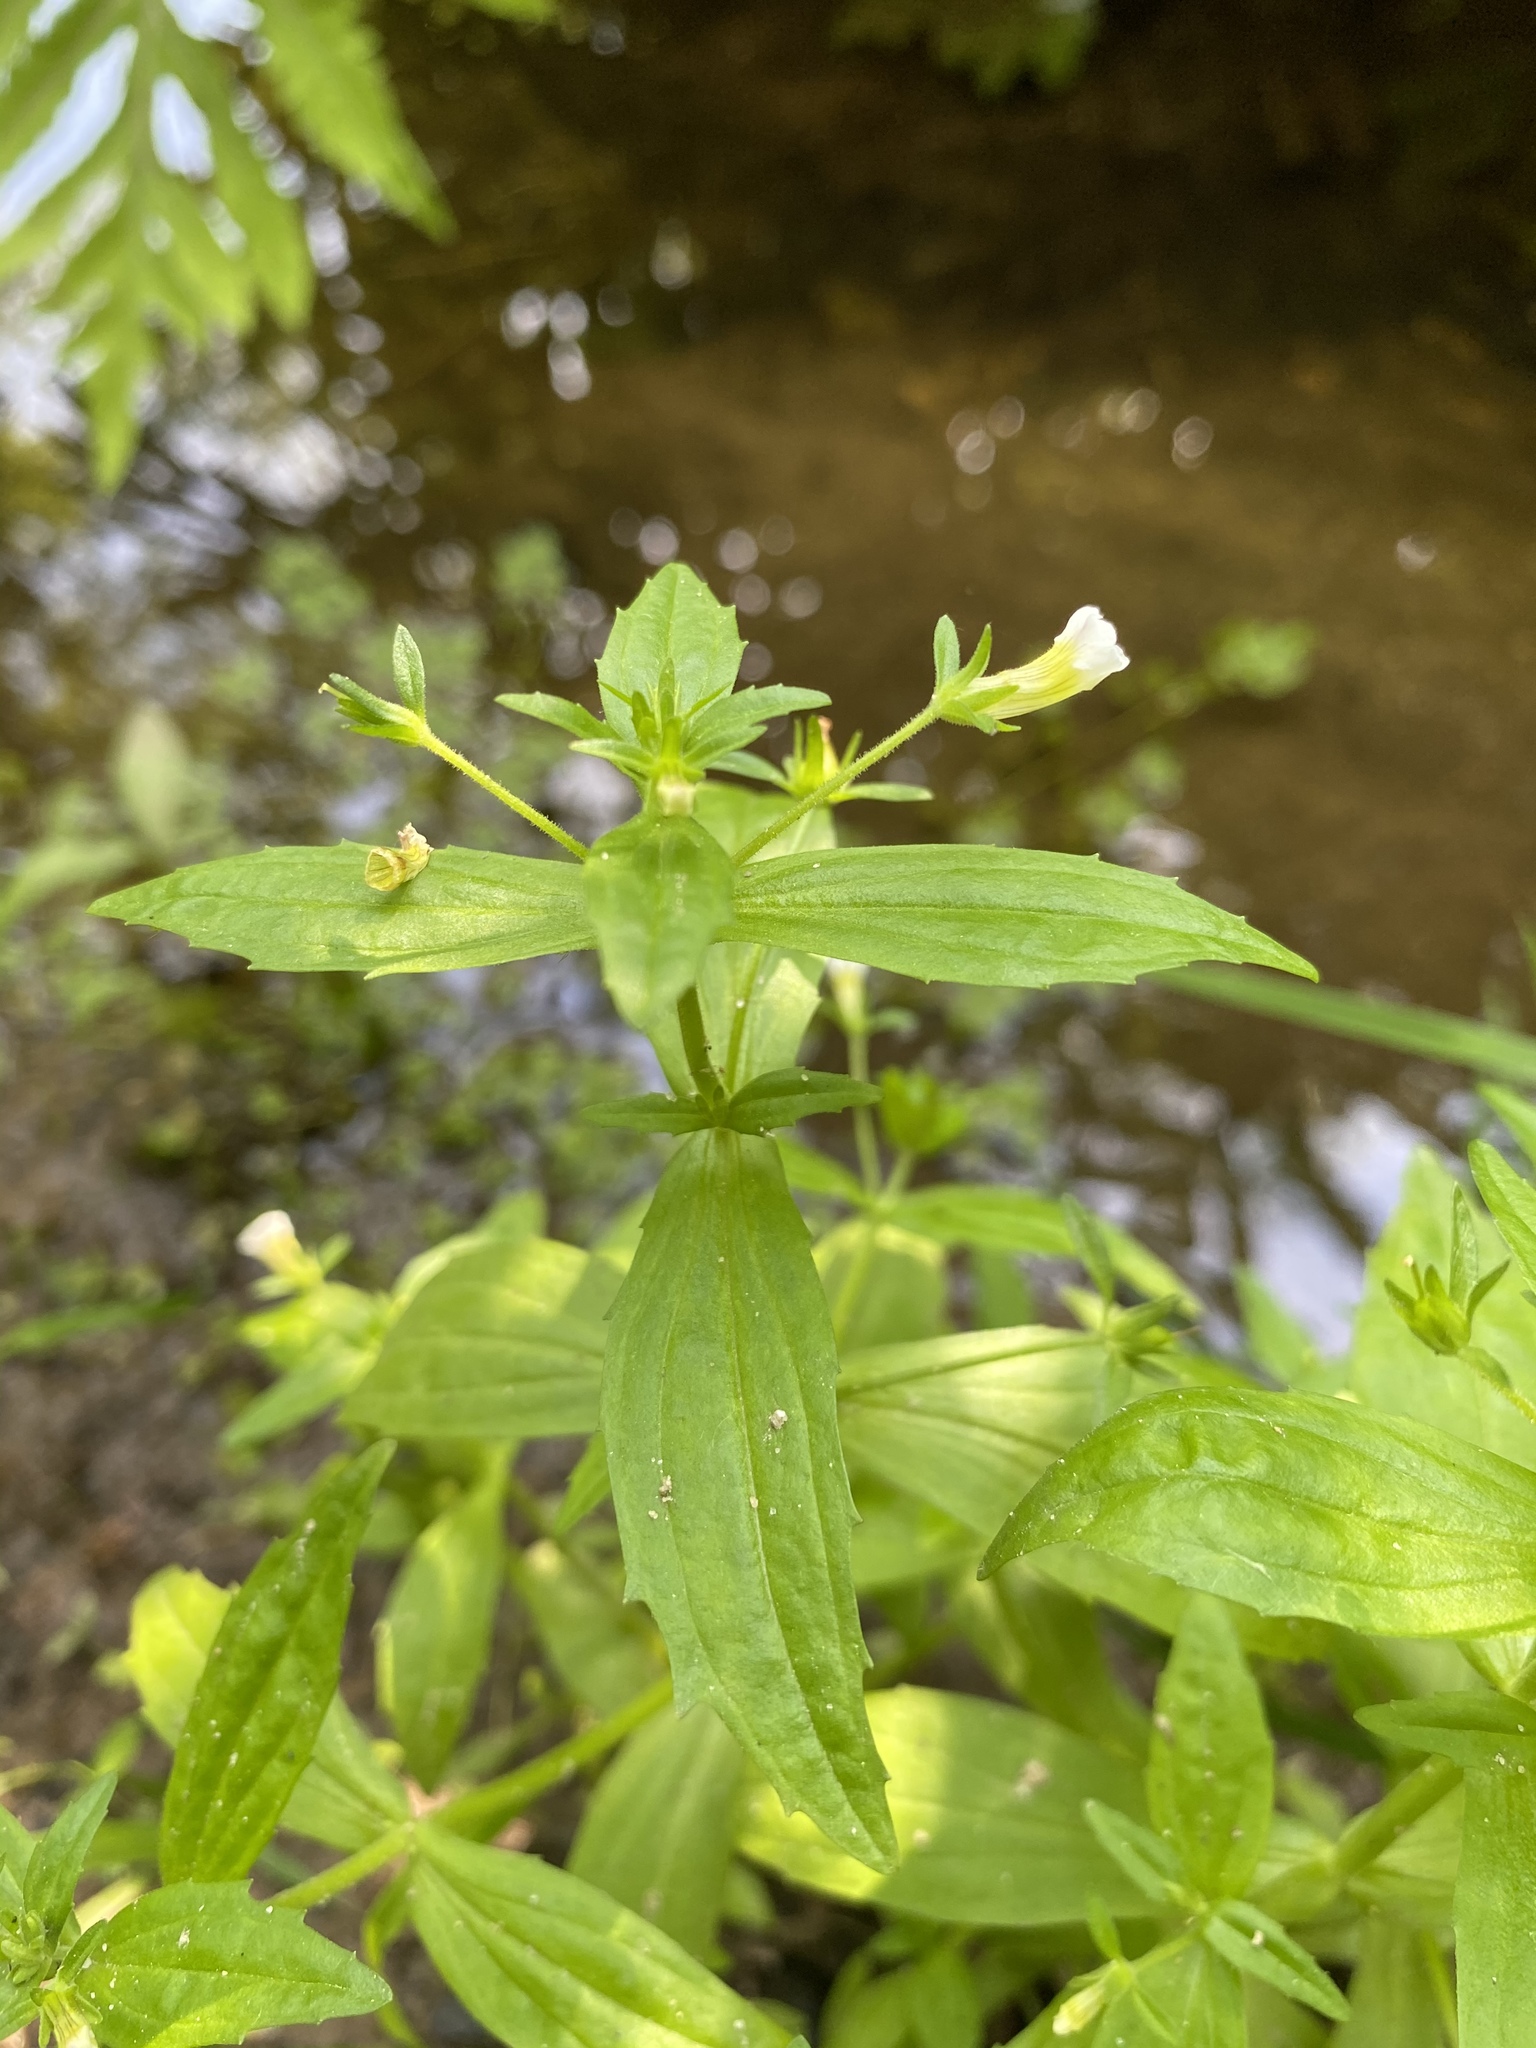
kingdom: Plantae
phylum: Tracheophyta
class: Magnoliopsida
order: Lamiales
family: Plantaginaceae
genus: Gratiola
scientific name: Gratiola neglecta
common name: American hedge-hyssop
